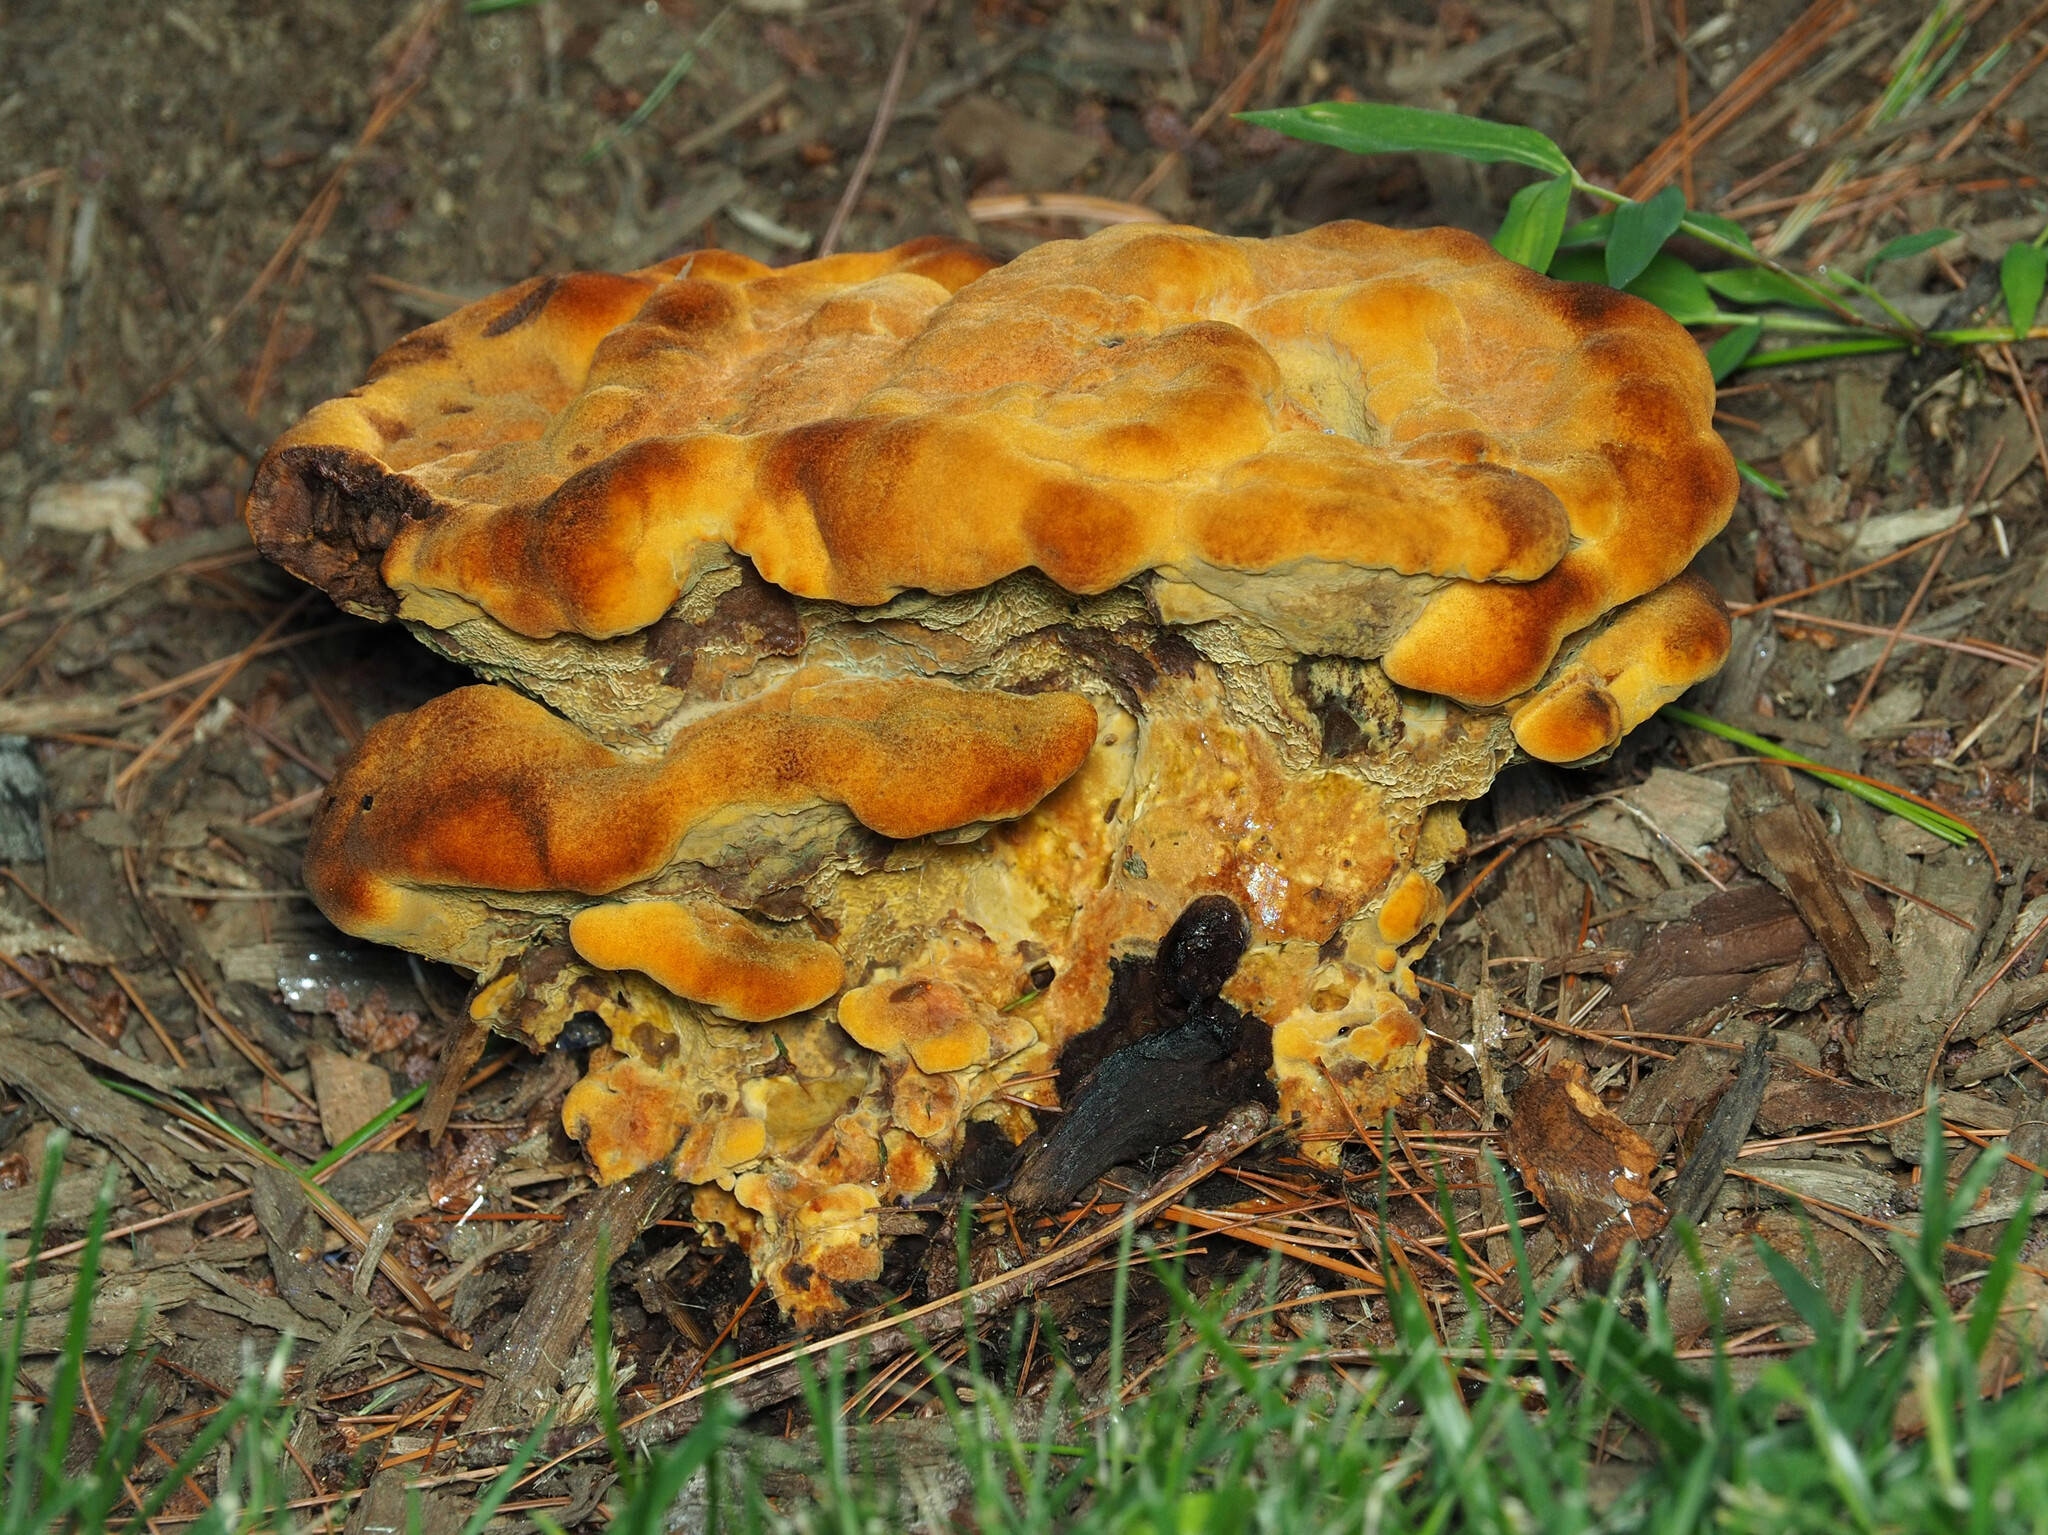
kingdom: Fungi
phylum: Basidiomycota
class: Agaricomycetes
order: Polyporales
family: Laetiporaceae
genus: Phaeolus
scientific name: Phaeolus schweinitzii
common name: Dyer's mazegill
